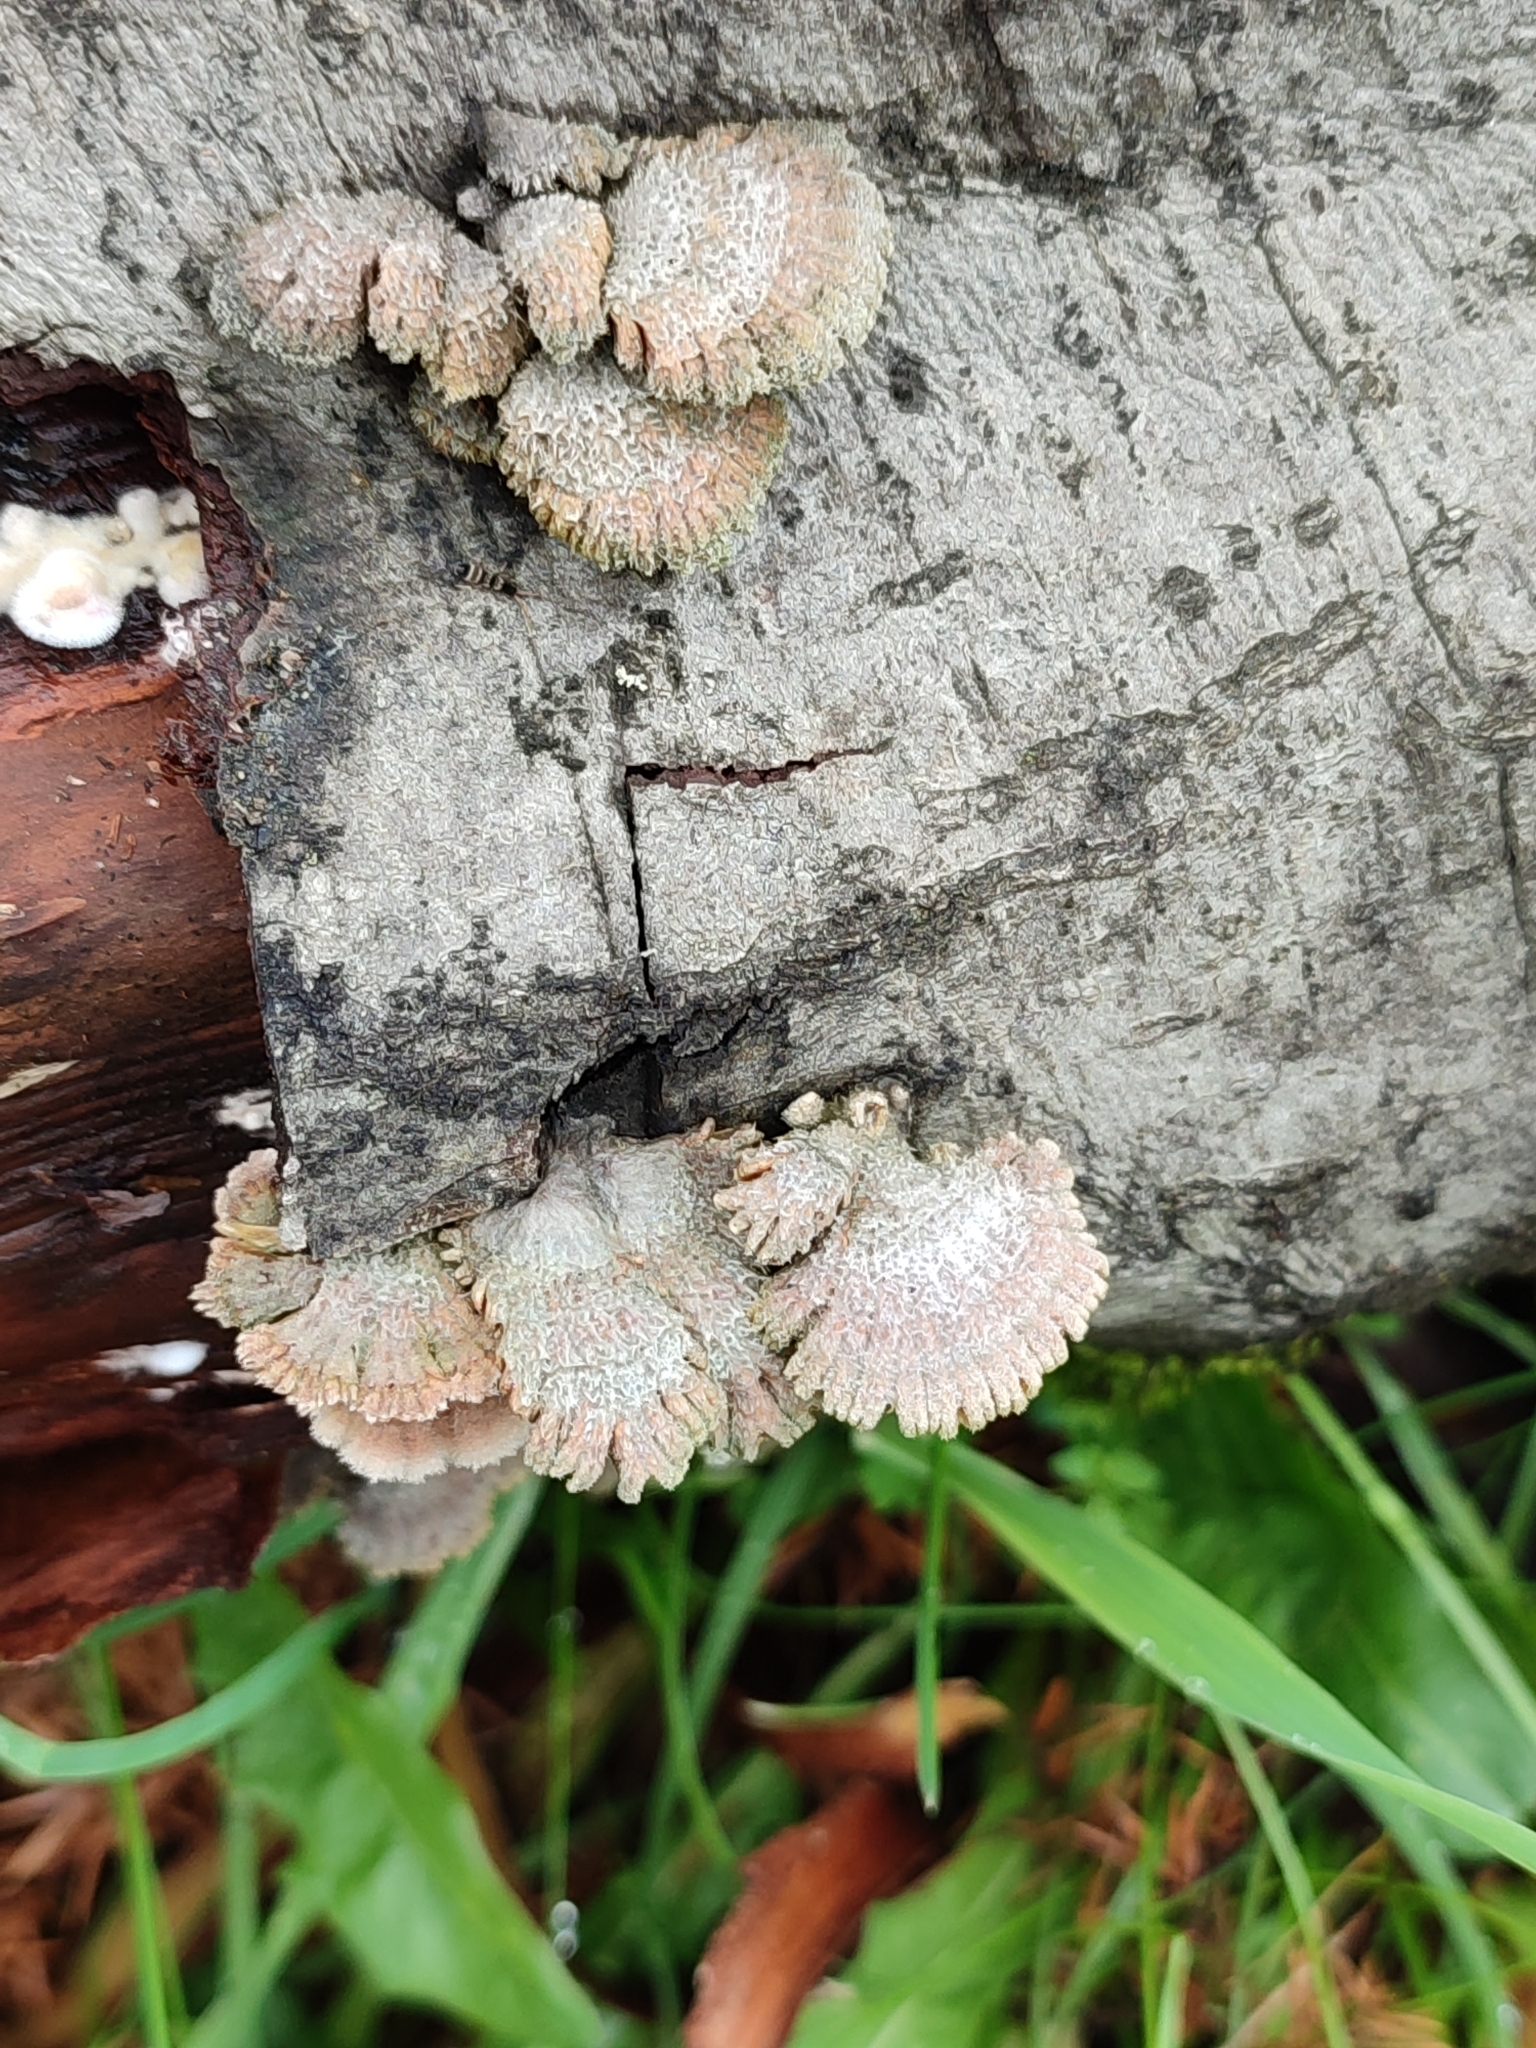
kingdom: Fungi
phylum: Basidiomycota
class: Agaricomycetes
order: Agaricales
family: Schizophyllaceae
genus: Schizophyllum
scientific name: Schizophyllum commune
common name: Common porecrust
